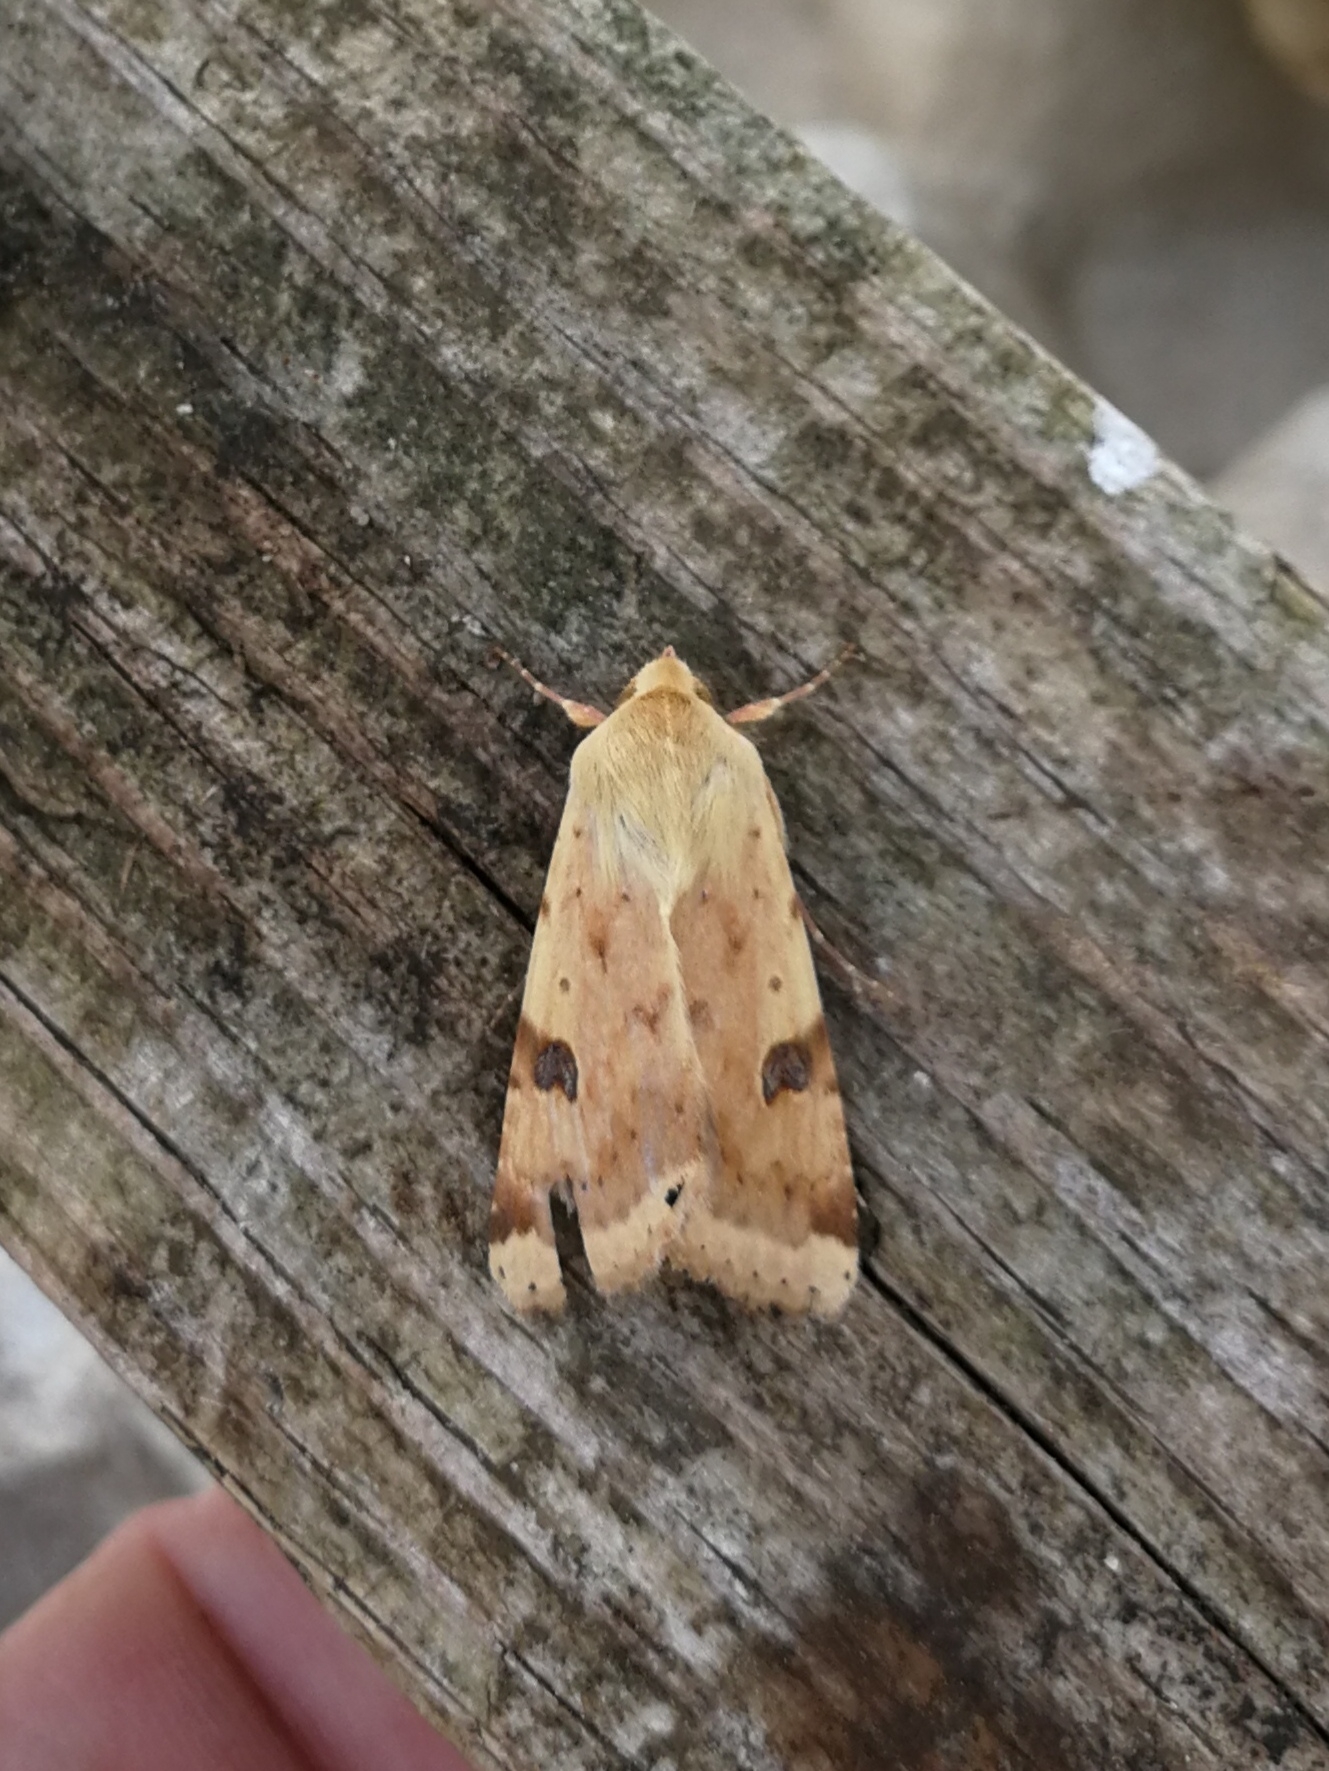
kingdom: Animalia
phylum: Arthropoda
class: Insecta
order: Lepidoptera
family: Noctuidae
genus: Heliothis
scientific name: Heliothis peltigera
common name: Bordered straw
